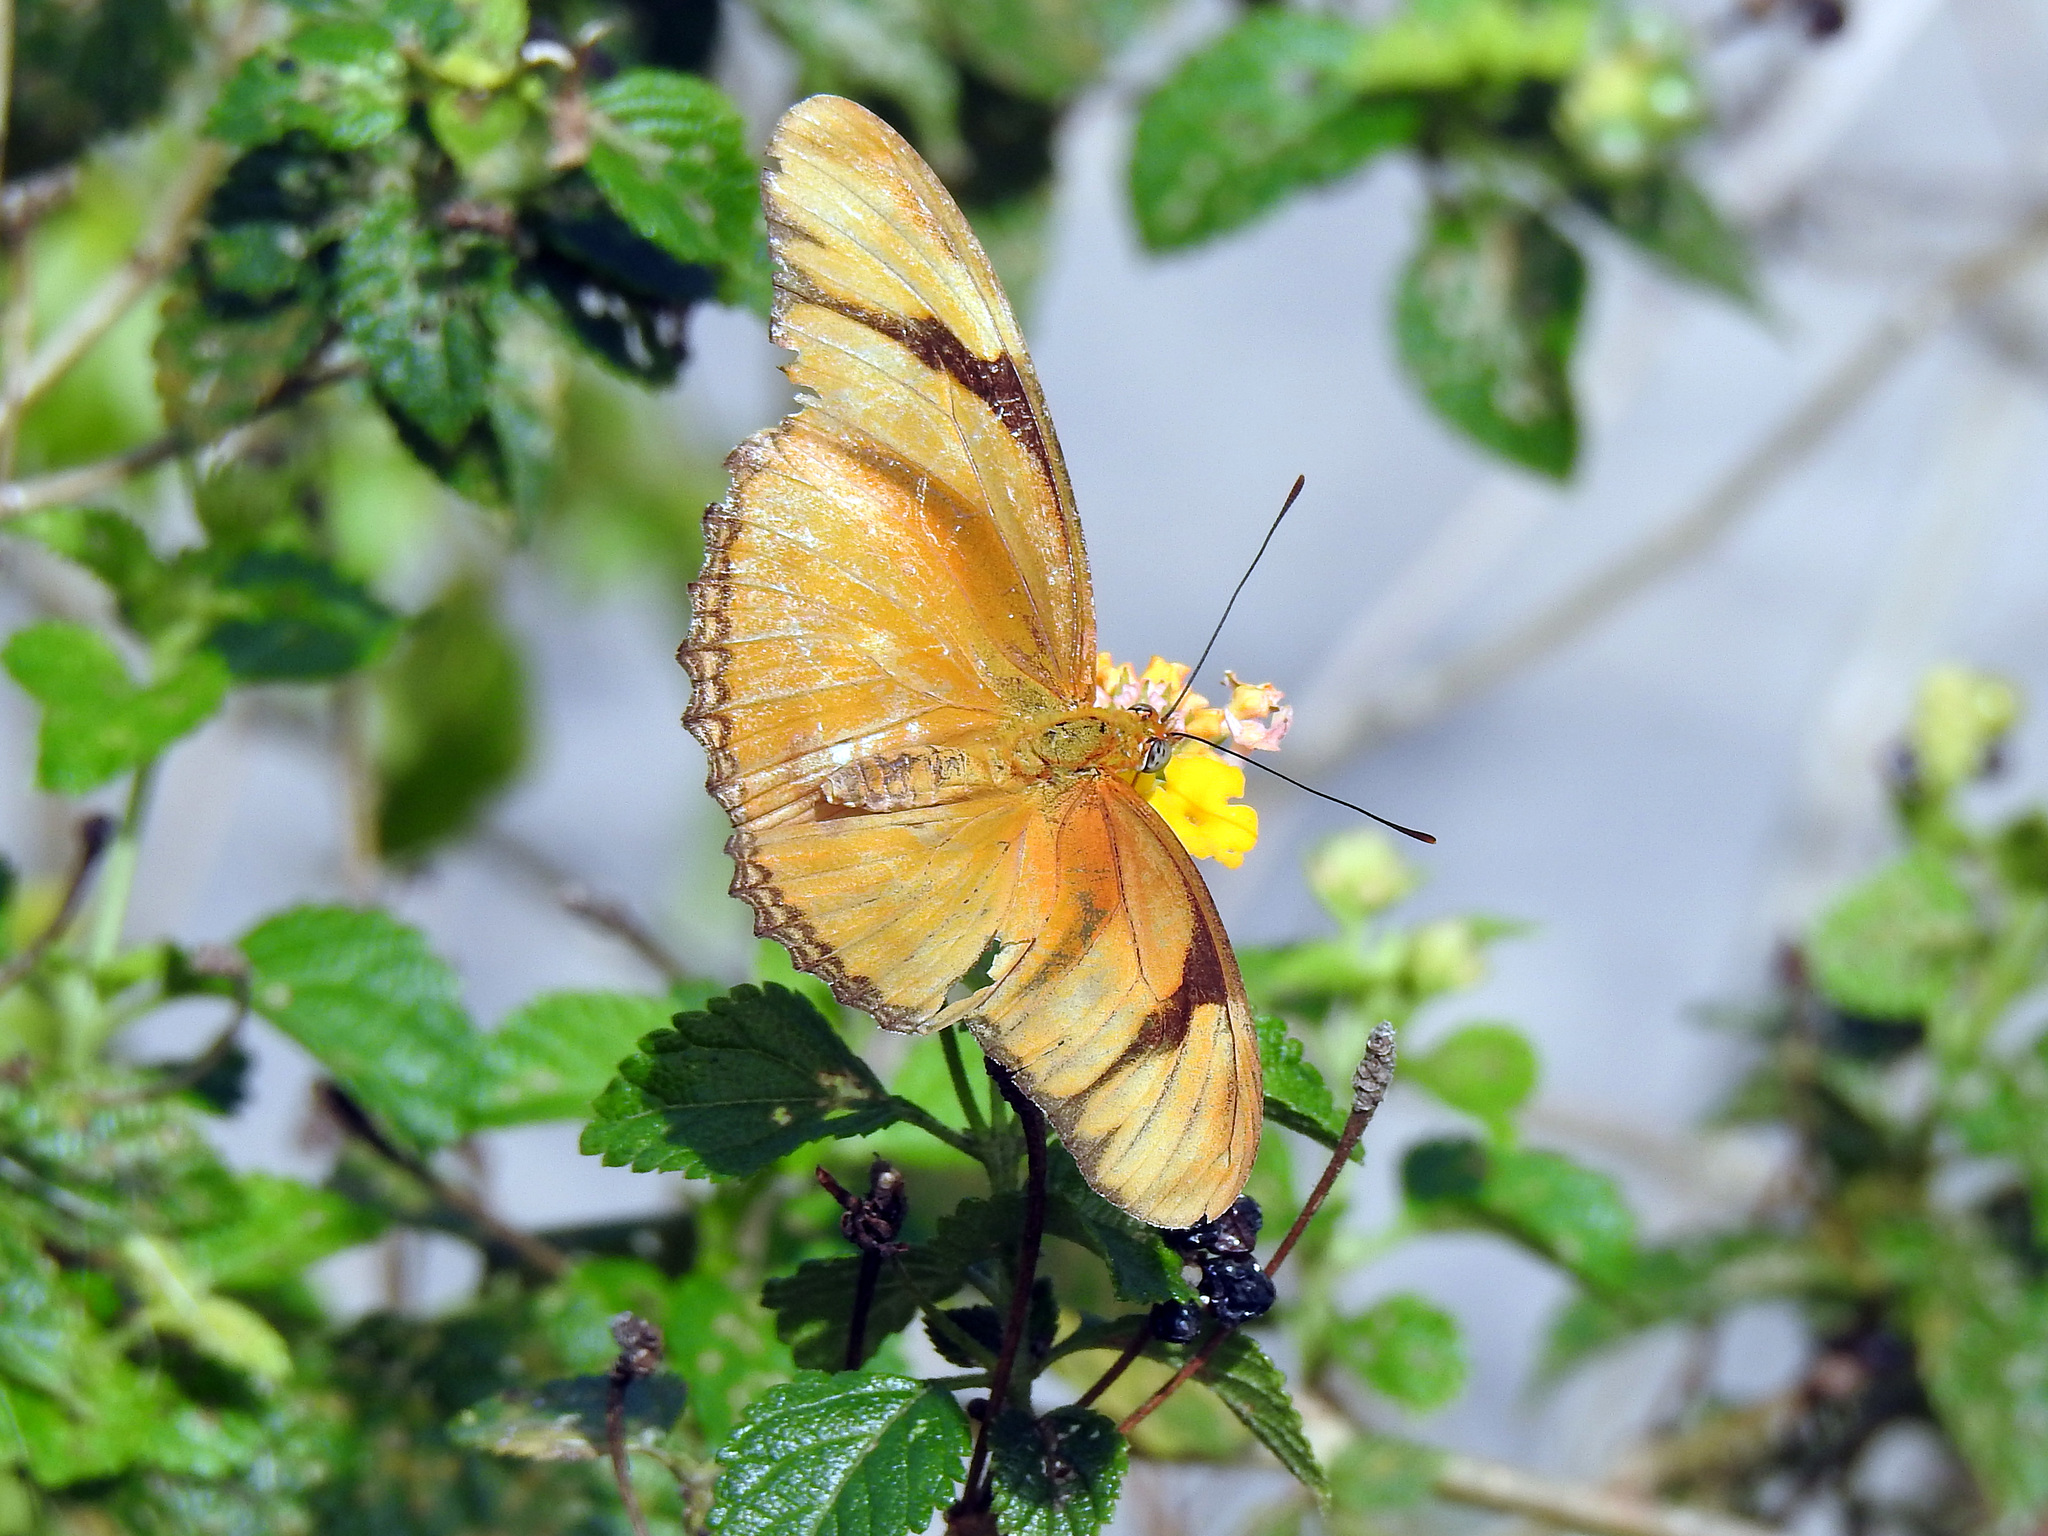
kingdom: Animalia
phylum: Arthropoda
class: Insecta
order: Lepidoptera
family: Nymphalidae
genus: Dryas
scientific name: Dryas iulia
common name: Flambeau
